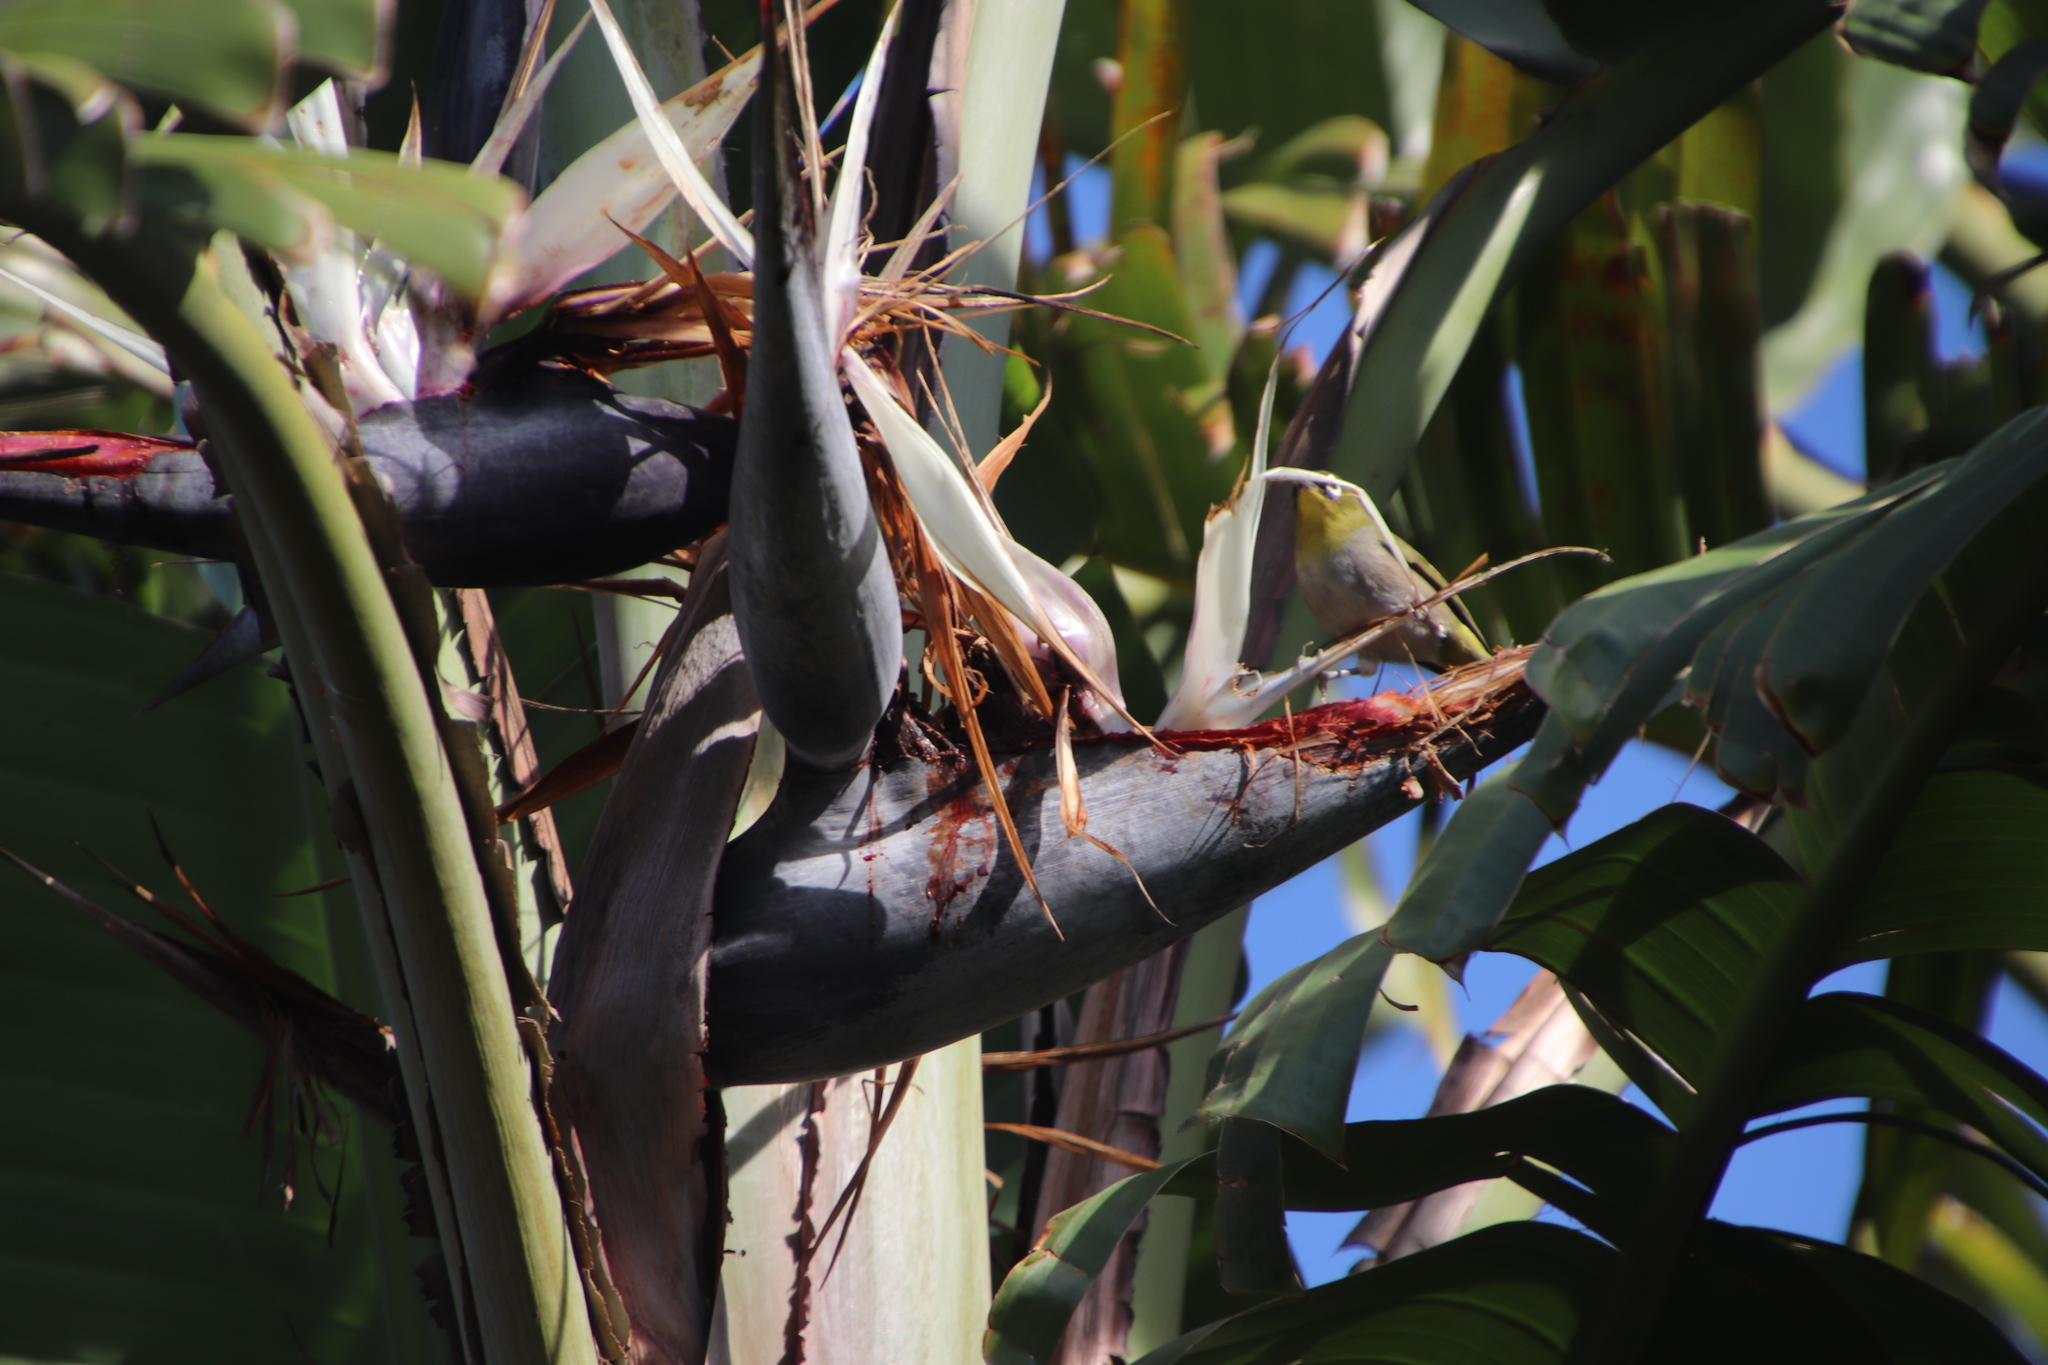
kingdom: Animalia
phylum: Chordata
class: Aves
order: Passeriformes
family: Zosteropidae
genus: Zosterops
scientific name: Zosterops virens
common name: Cape white-eye
